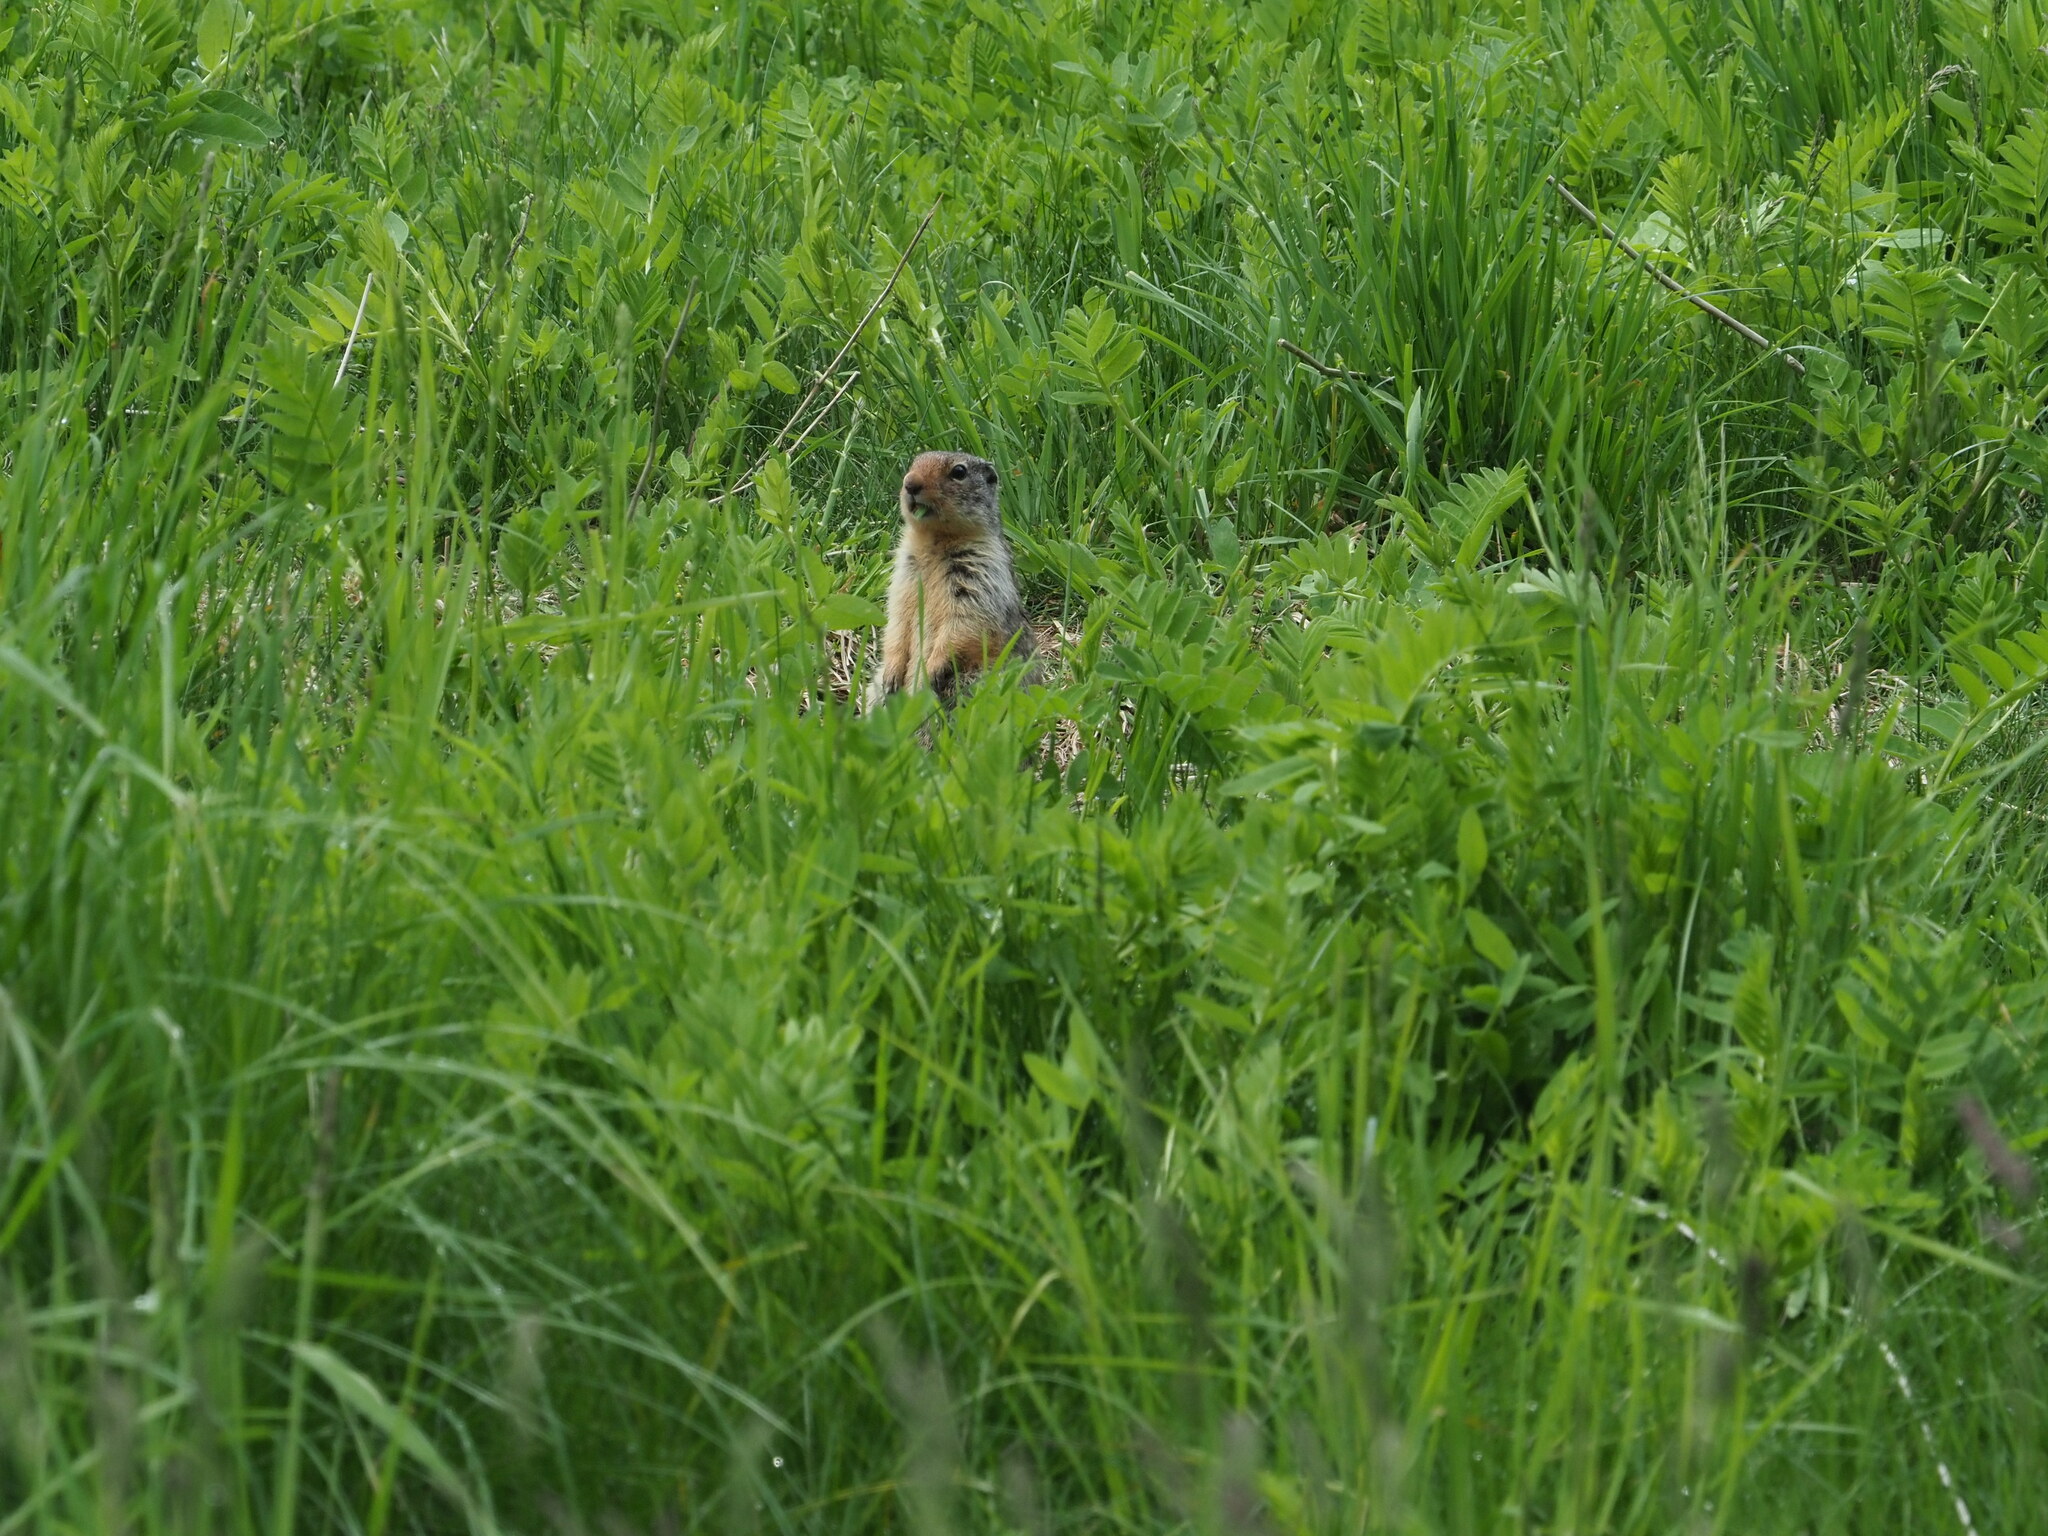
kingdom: Animalia
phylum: Chordata
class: Mammalia
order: Rodentia
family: Sciuridae
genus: Urocitellus
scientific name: Urocitellus columbianus
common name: Columbian ground squirrel
